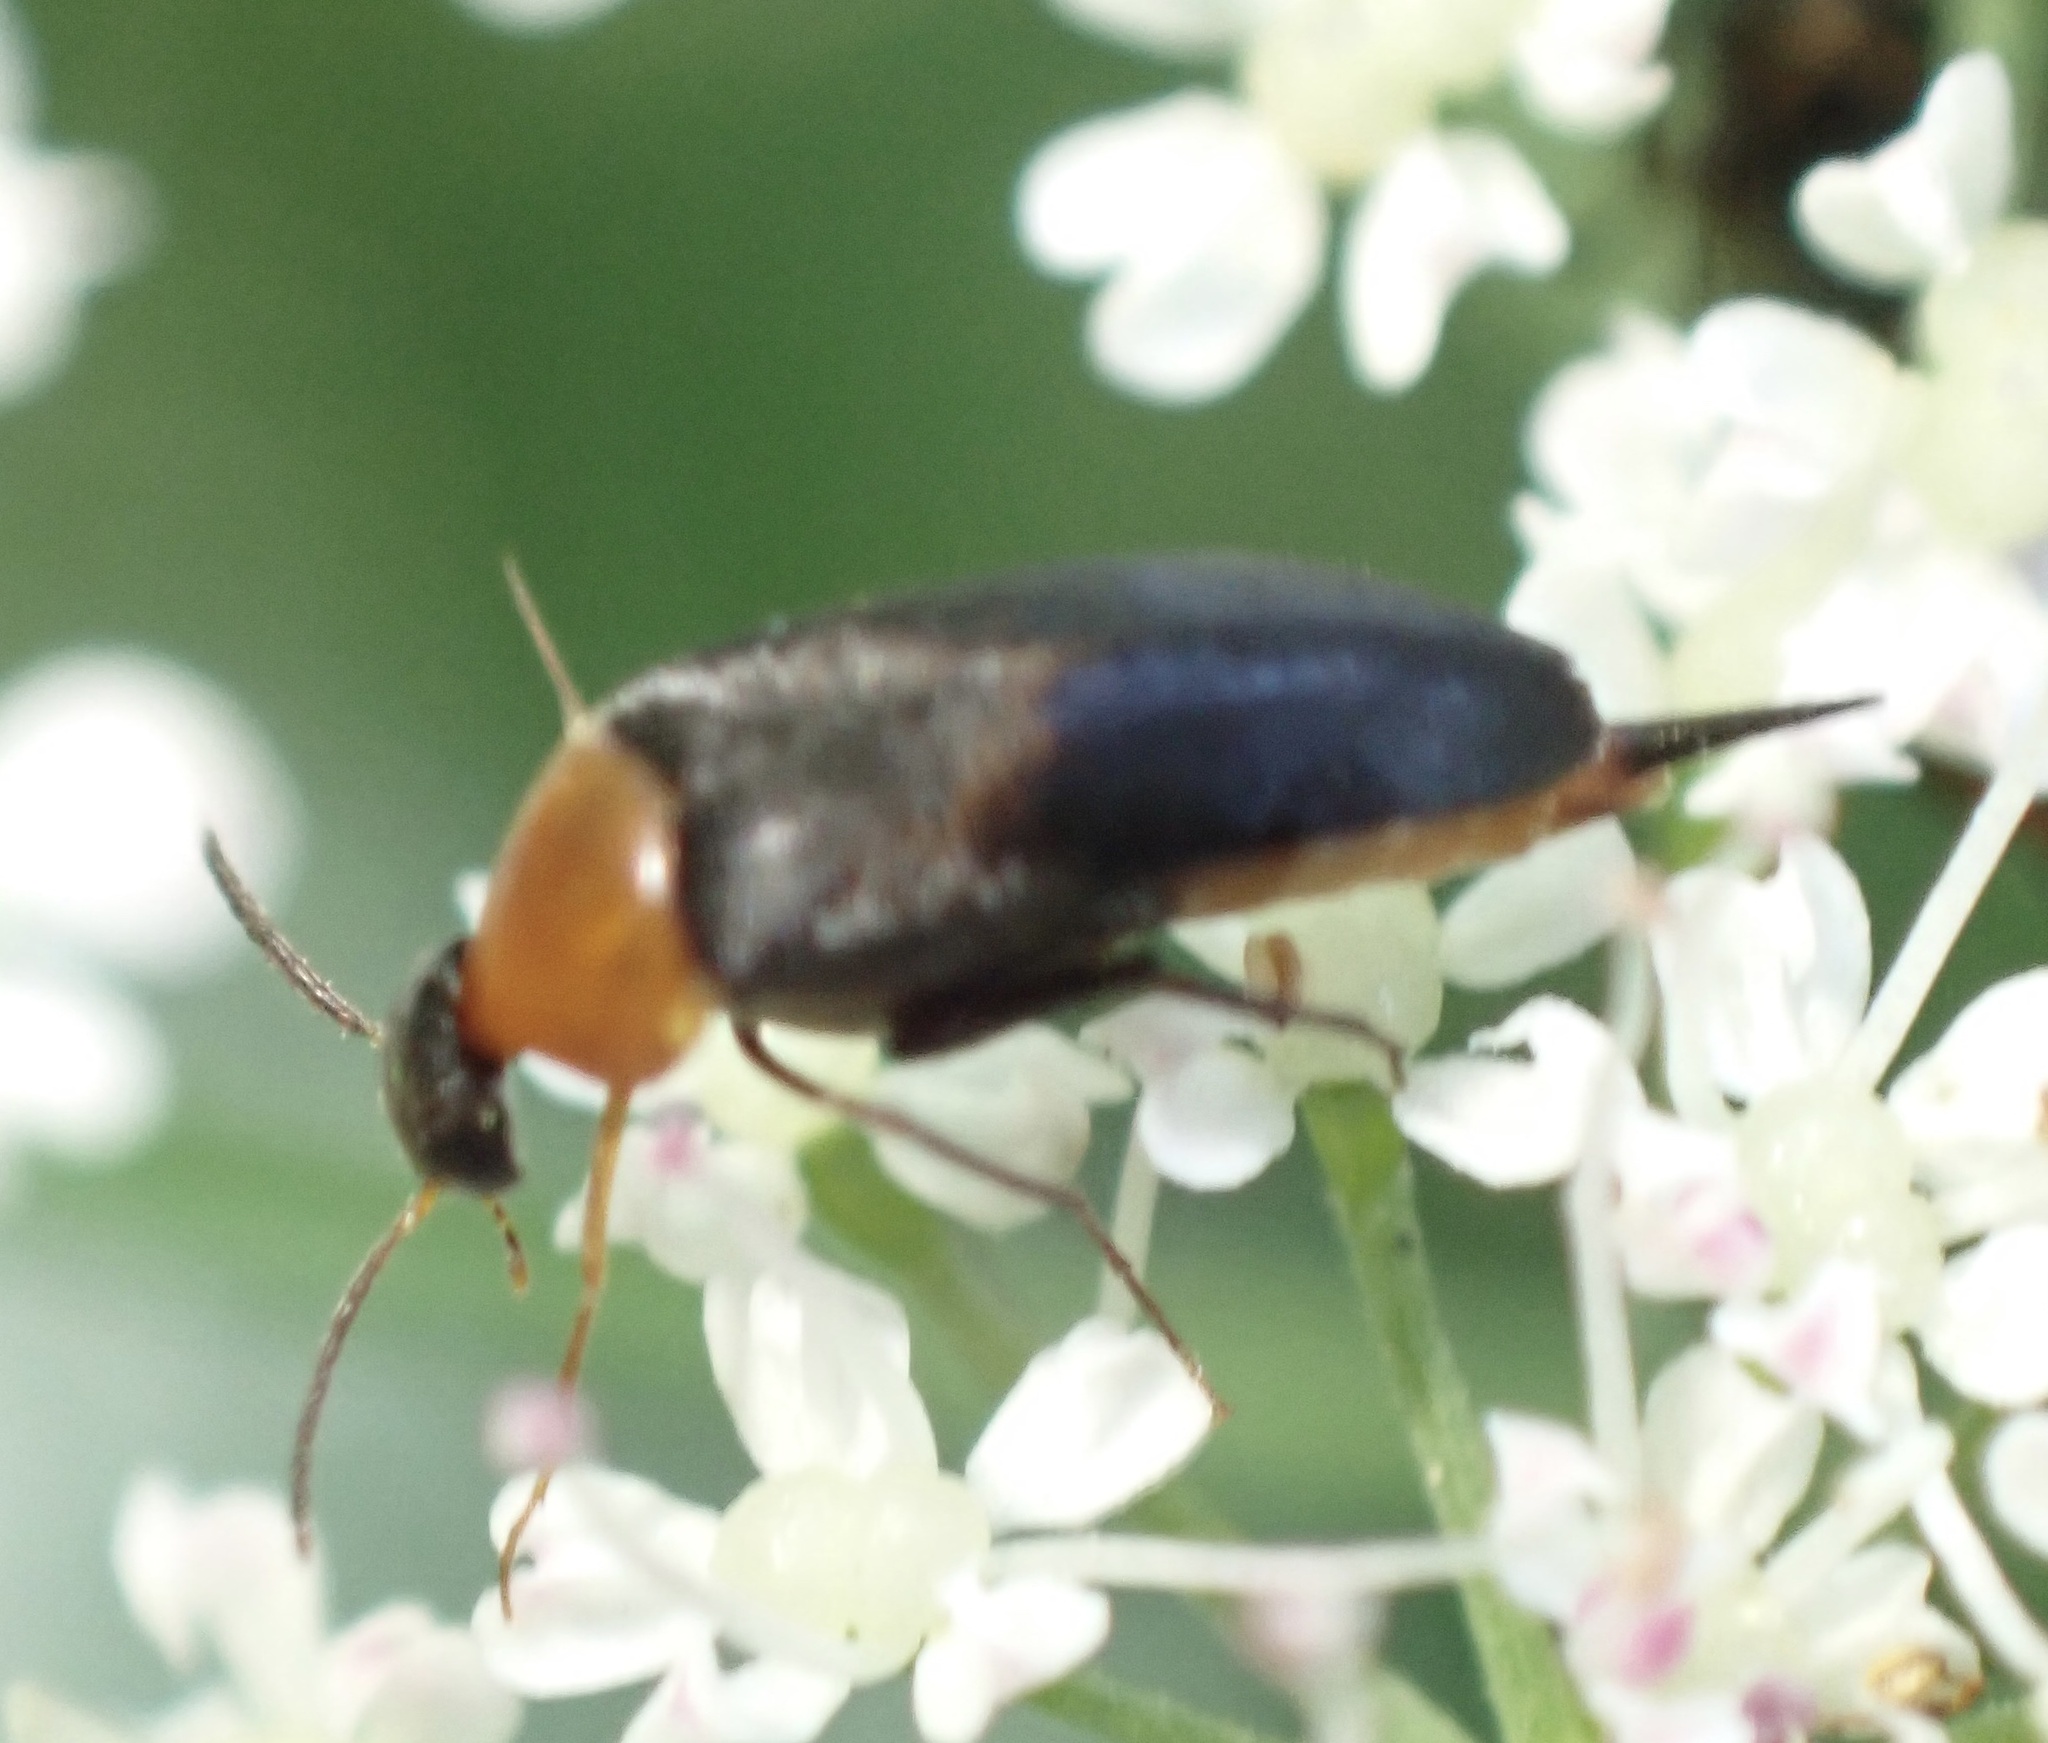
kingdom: Animalia
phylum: Arthropoda
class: Insecta
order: Coleoptera
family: Mordellidae
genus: Mordellochroa
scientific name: Mordellochroa abdominalis
